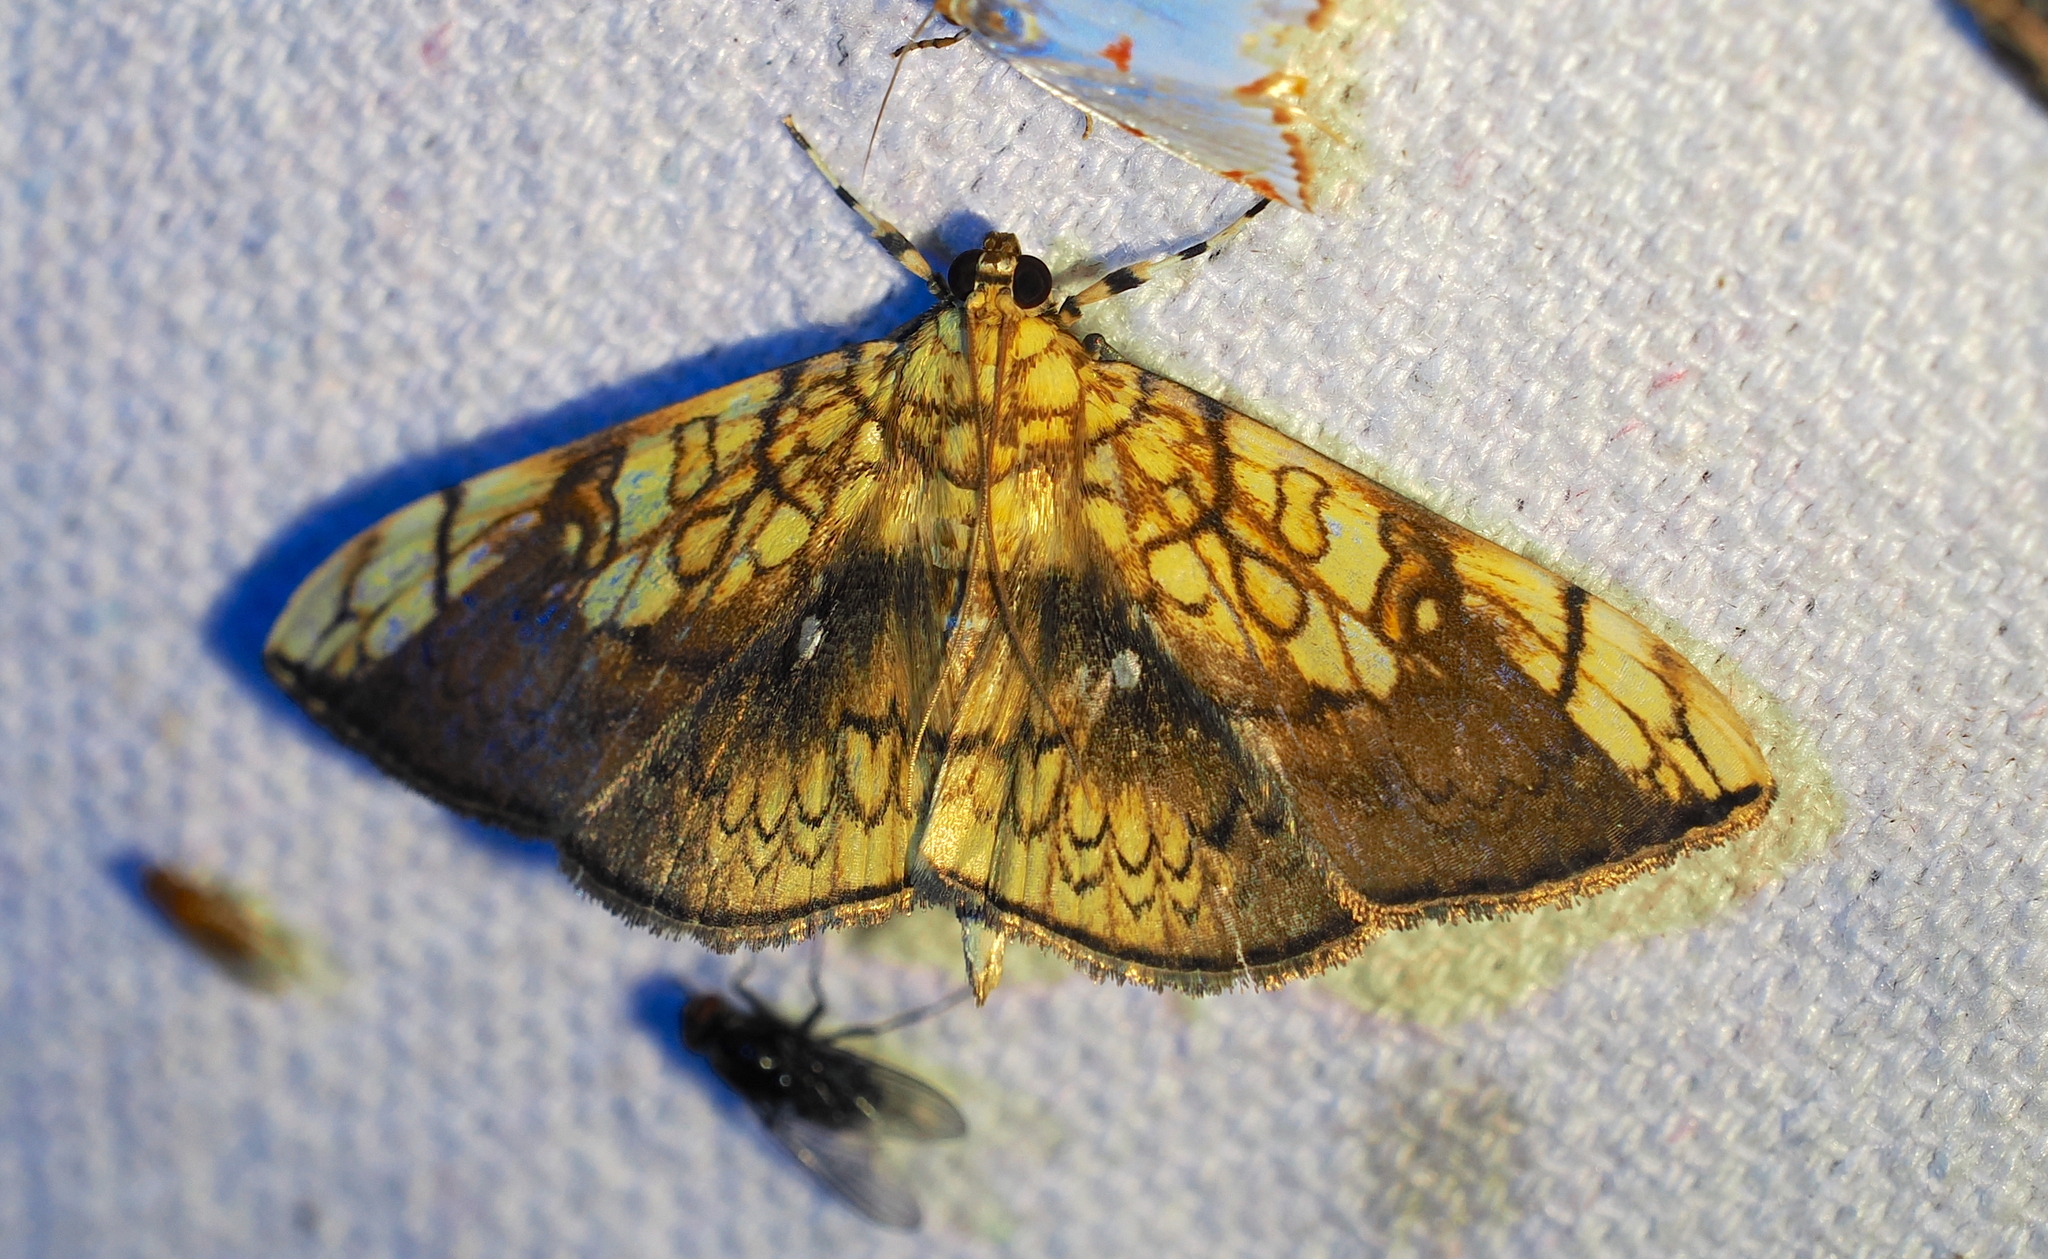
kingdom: Animalia
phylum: Arthropoda
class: Insecta
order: Lepidoptera
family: Crambidae
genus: Pantographa
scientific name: Pantographa limata
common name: Basswood leafroller moth
